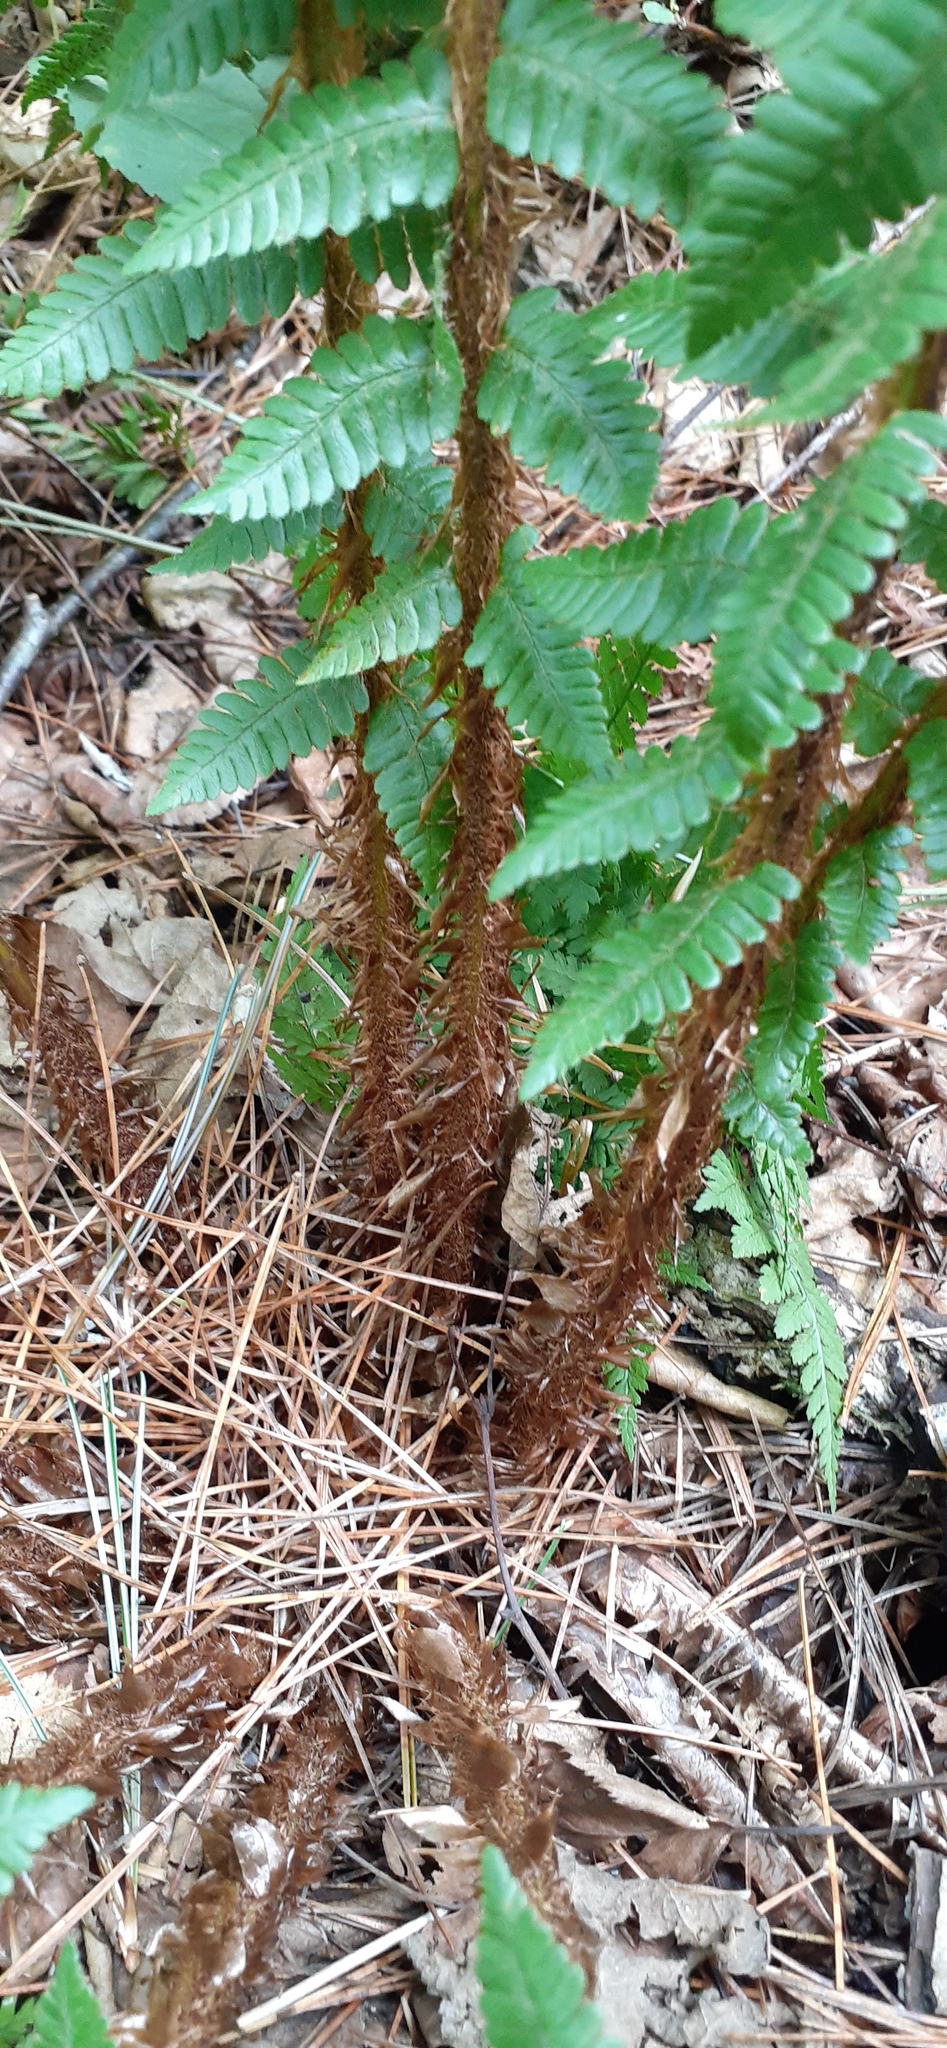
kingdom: Plantae
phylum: Tracheophyta
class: Polypodiopsida
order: Polypodiales
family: Dryopteridaceae
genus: Dryopteris
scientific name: Dryopteris crassirhizoma
